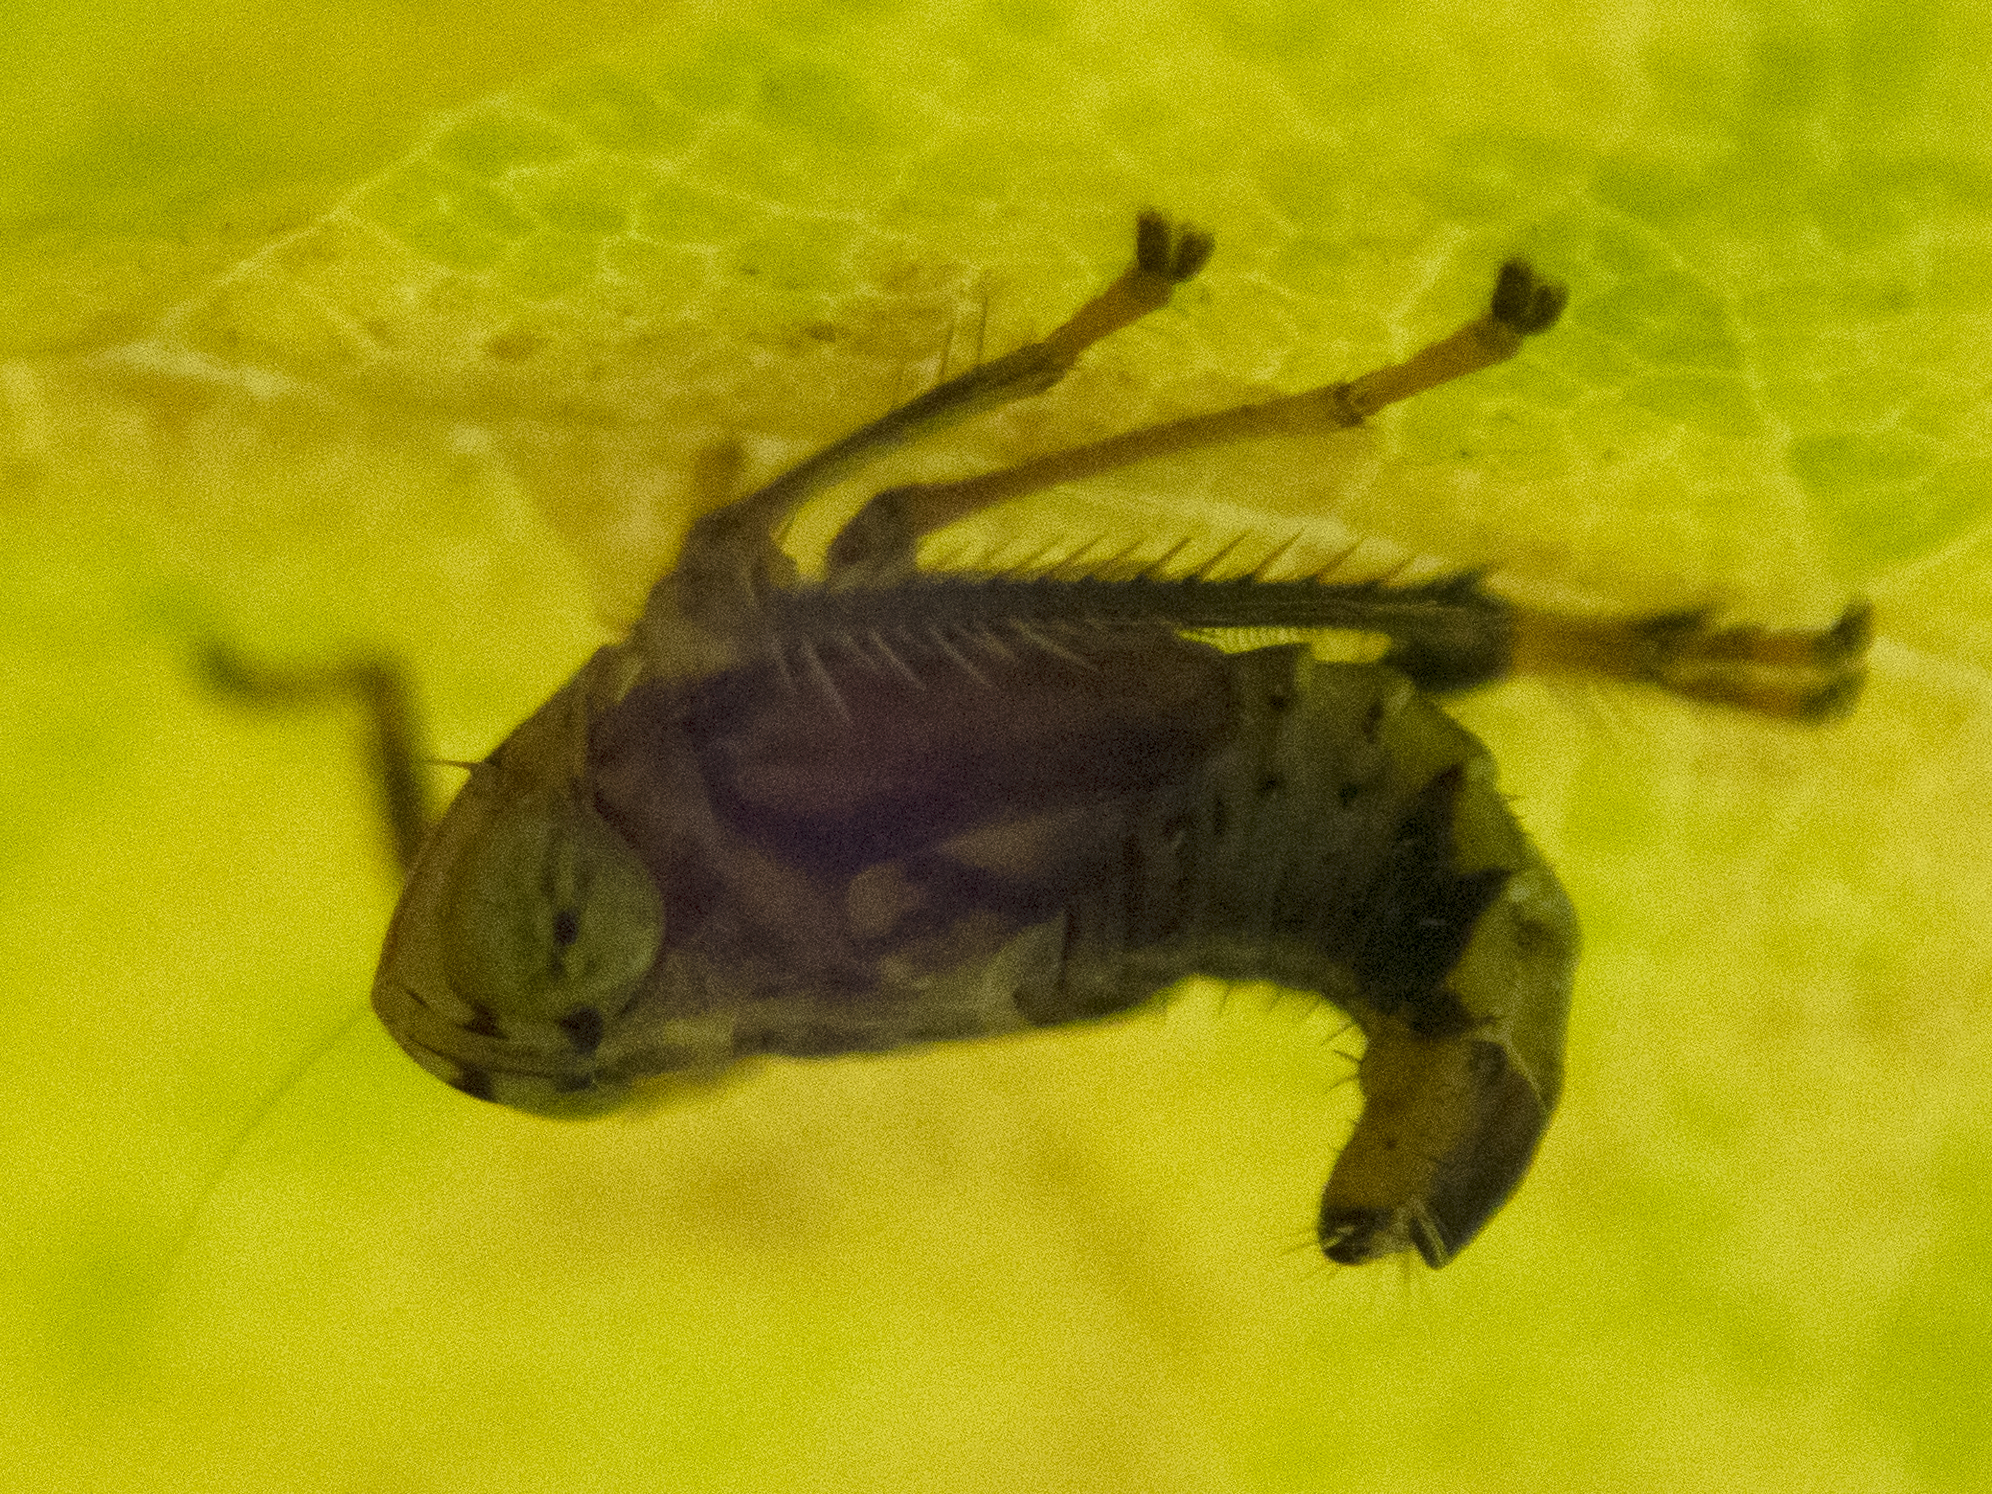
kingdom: Animalia
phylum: Arthropoda
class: Insecta
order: Hemiptera
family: Cicadellidae
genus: Jikradia
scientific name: Jikradia olitoria
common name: Coppery leafhopper
